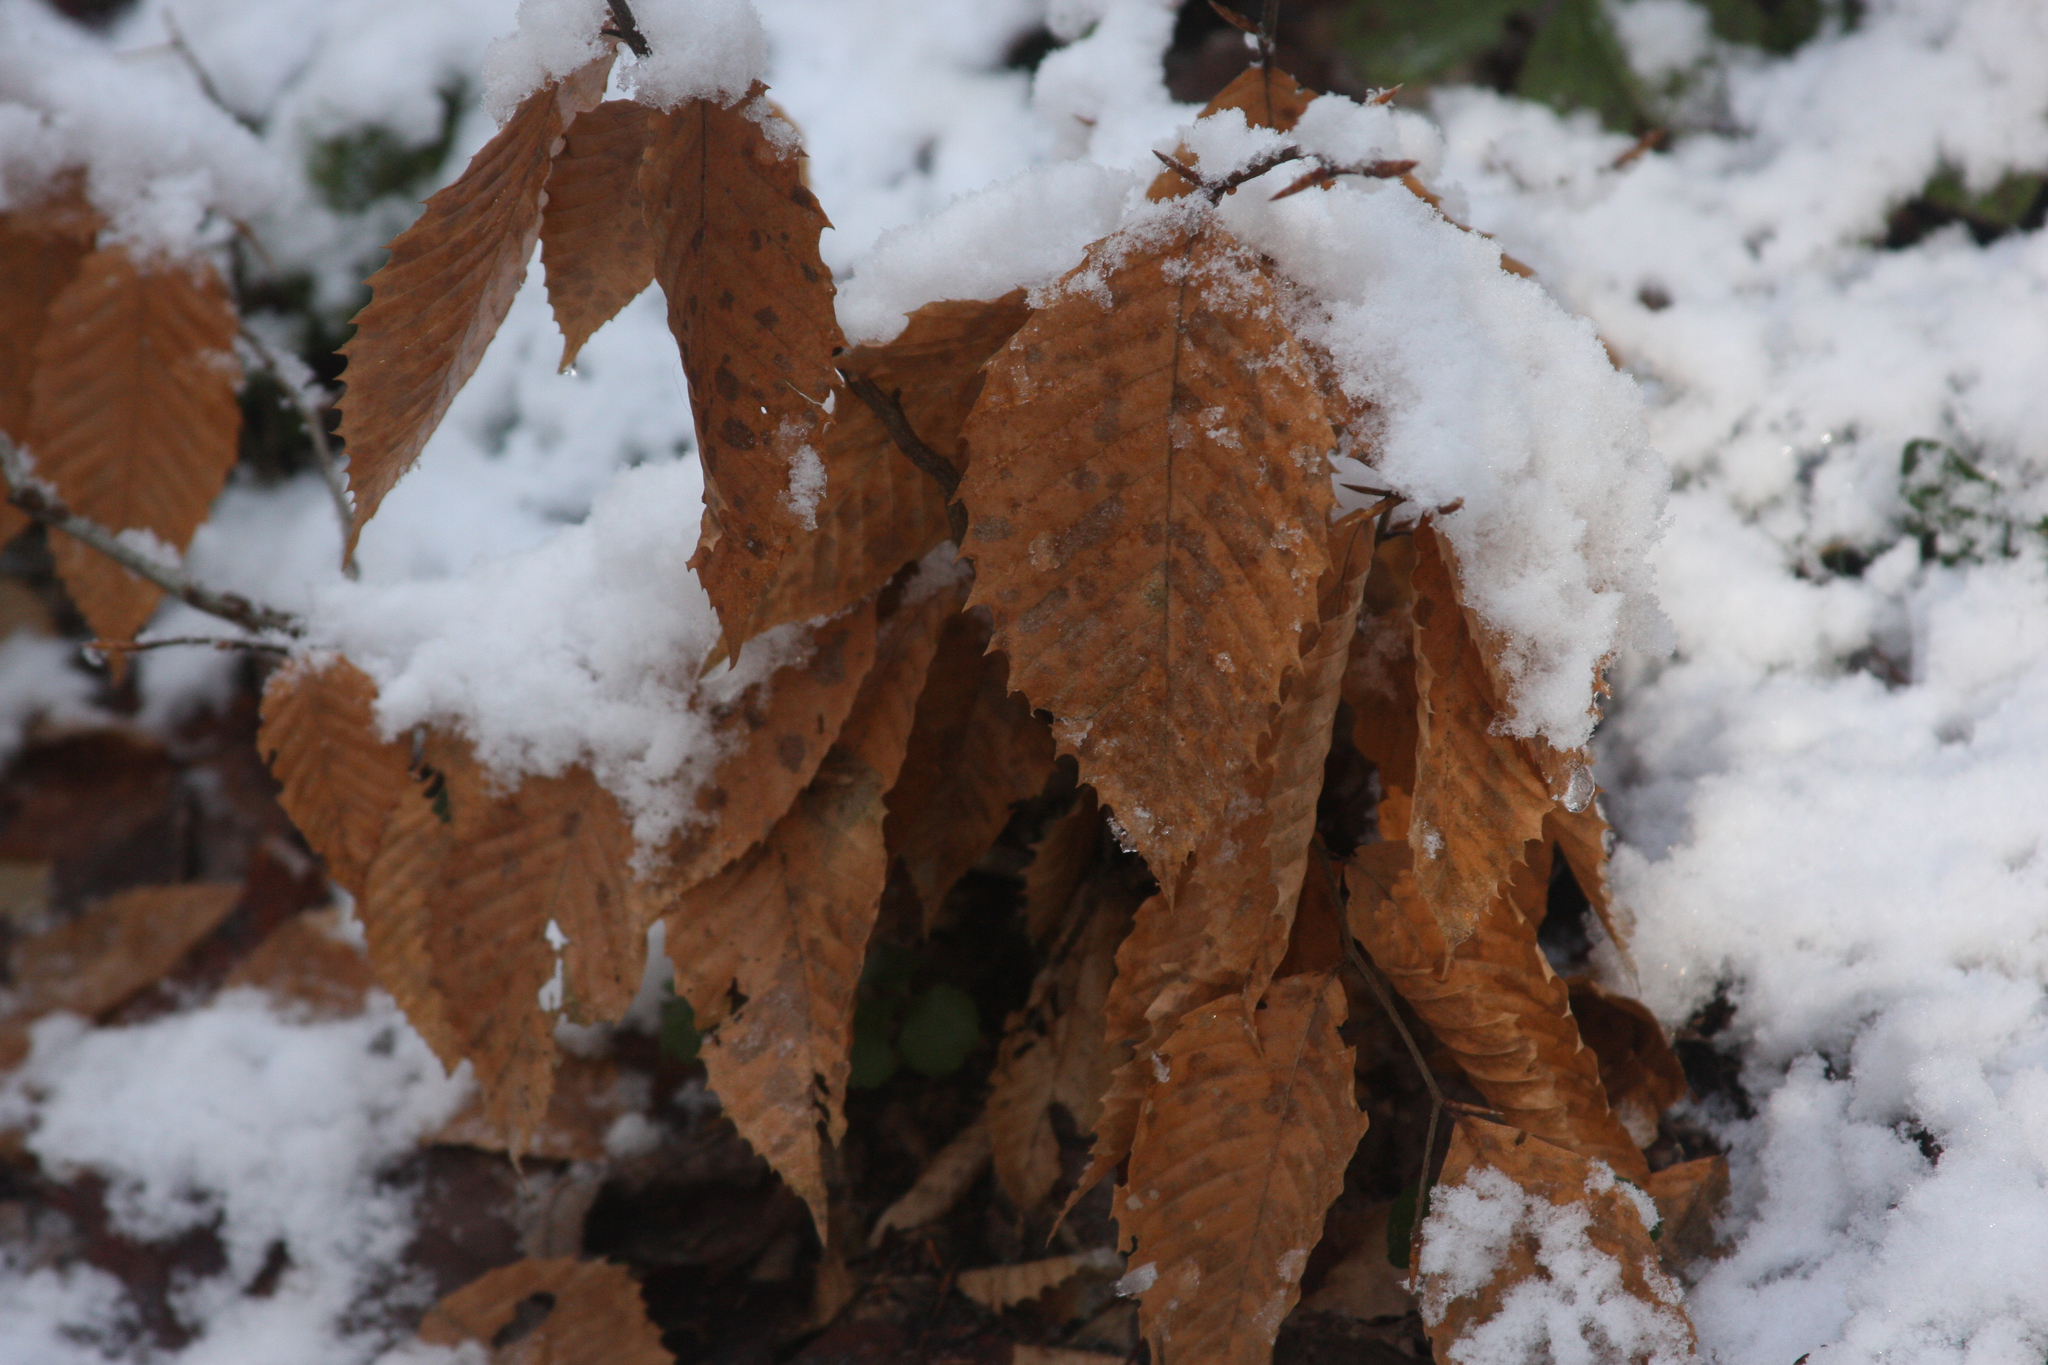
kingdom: Plantae
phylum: Tracheophyta
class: Magnoliopsida
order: Fagales
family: Fagaceae
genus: Fagus
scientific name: Fagus grandifolia
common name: American beech
